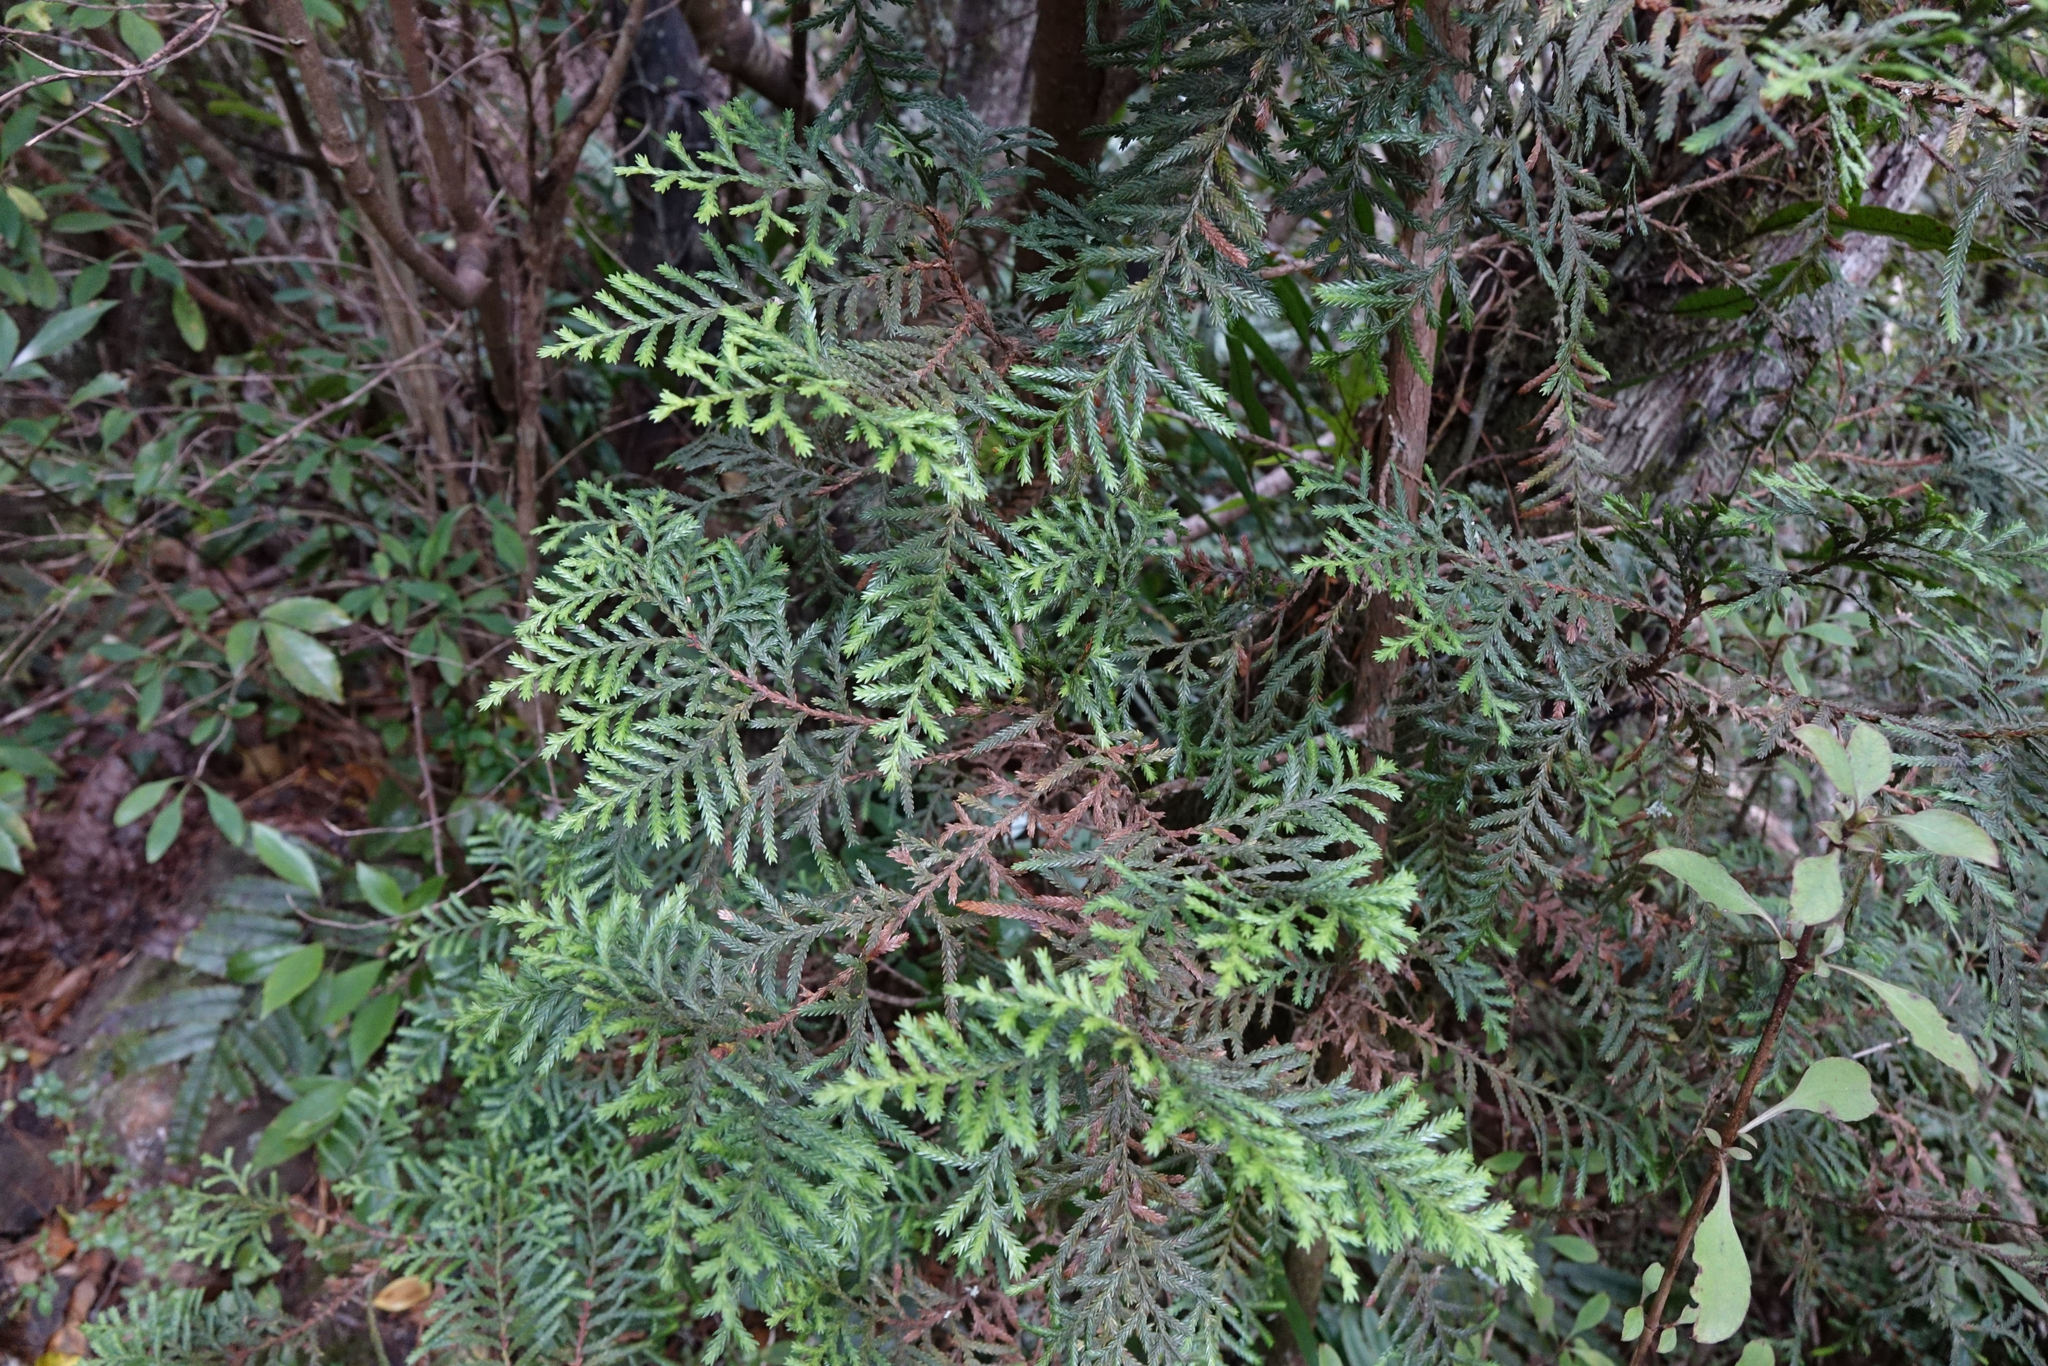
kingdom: Plantae
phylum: Tracheophyta
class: Pinopsida
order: Pinales
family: Cupressaceae
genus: Libocedrus
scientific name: Libocedrus bidwillii
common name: Cedar
